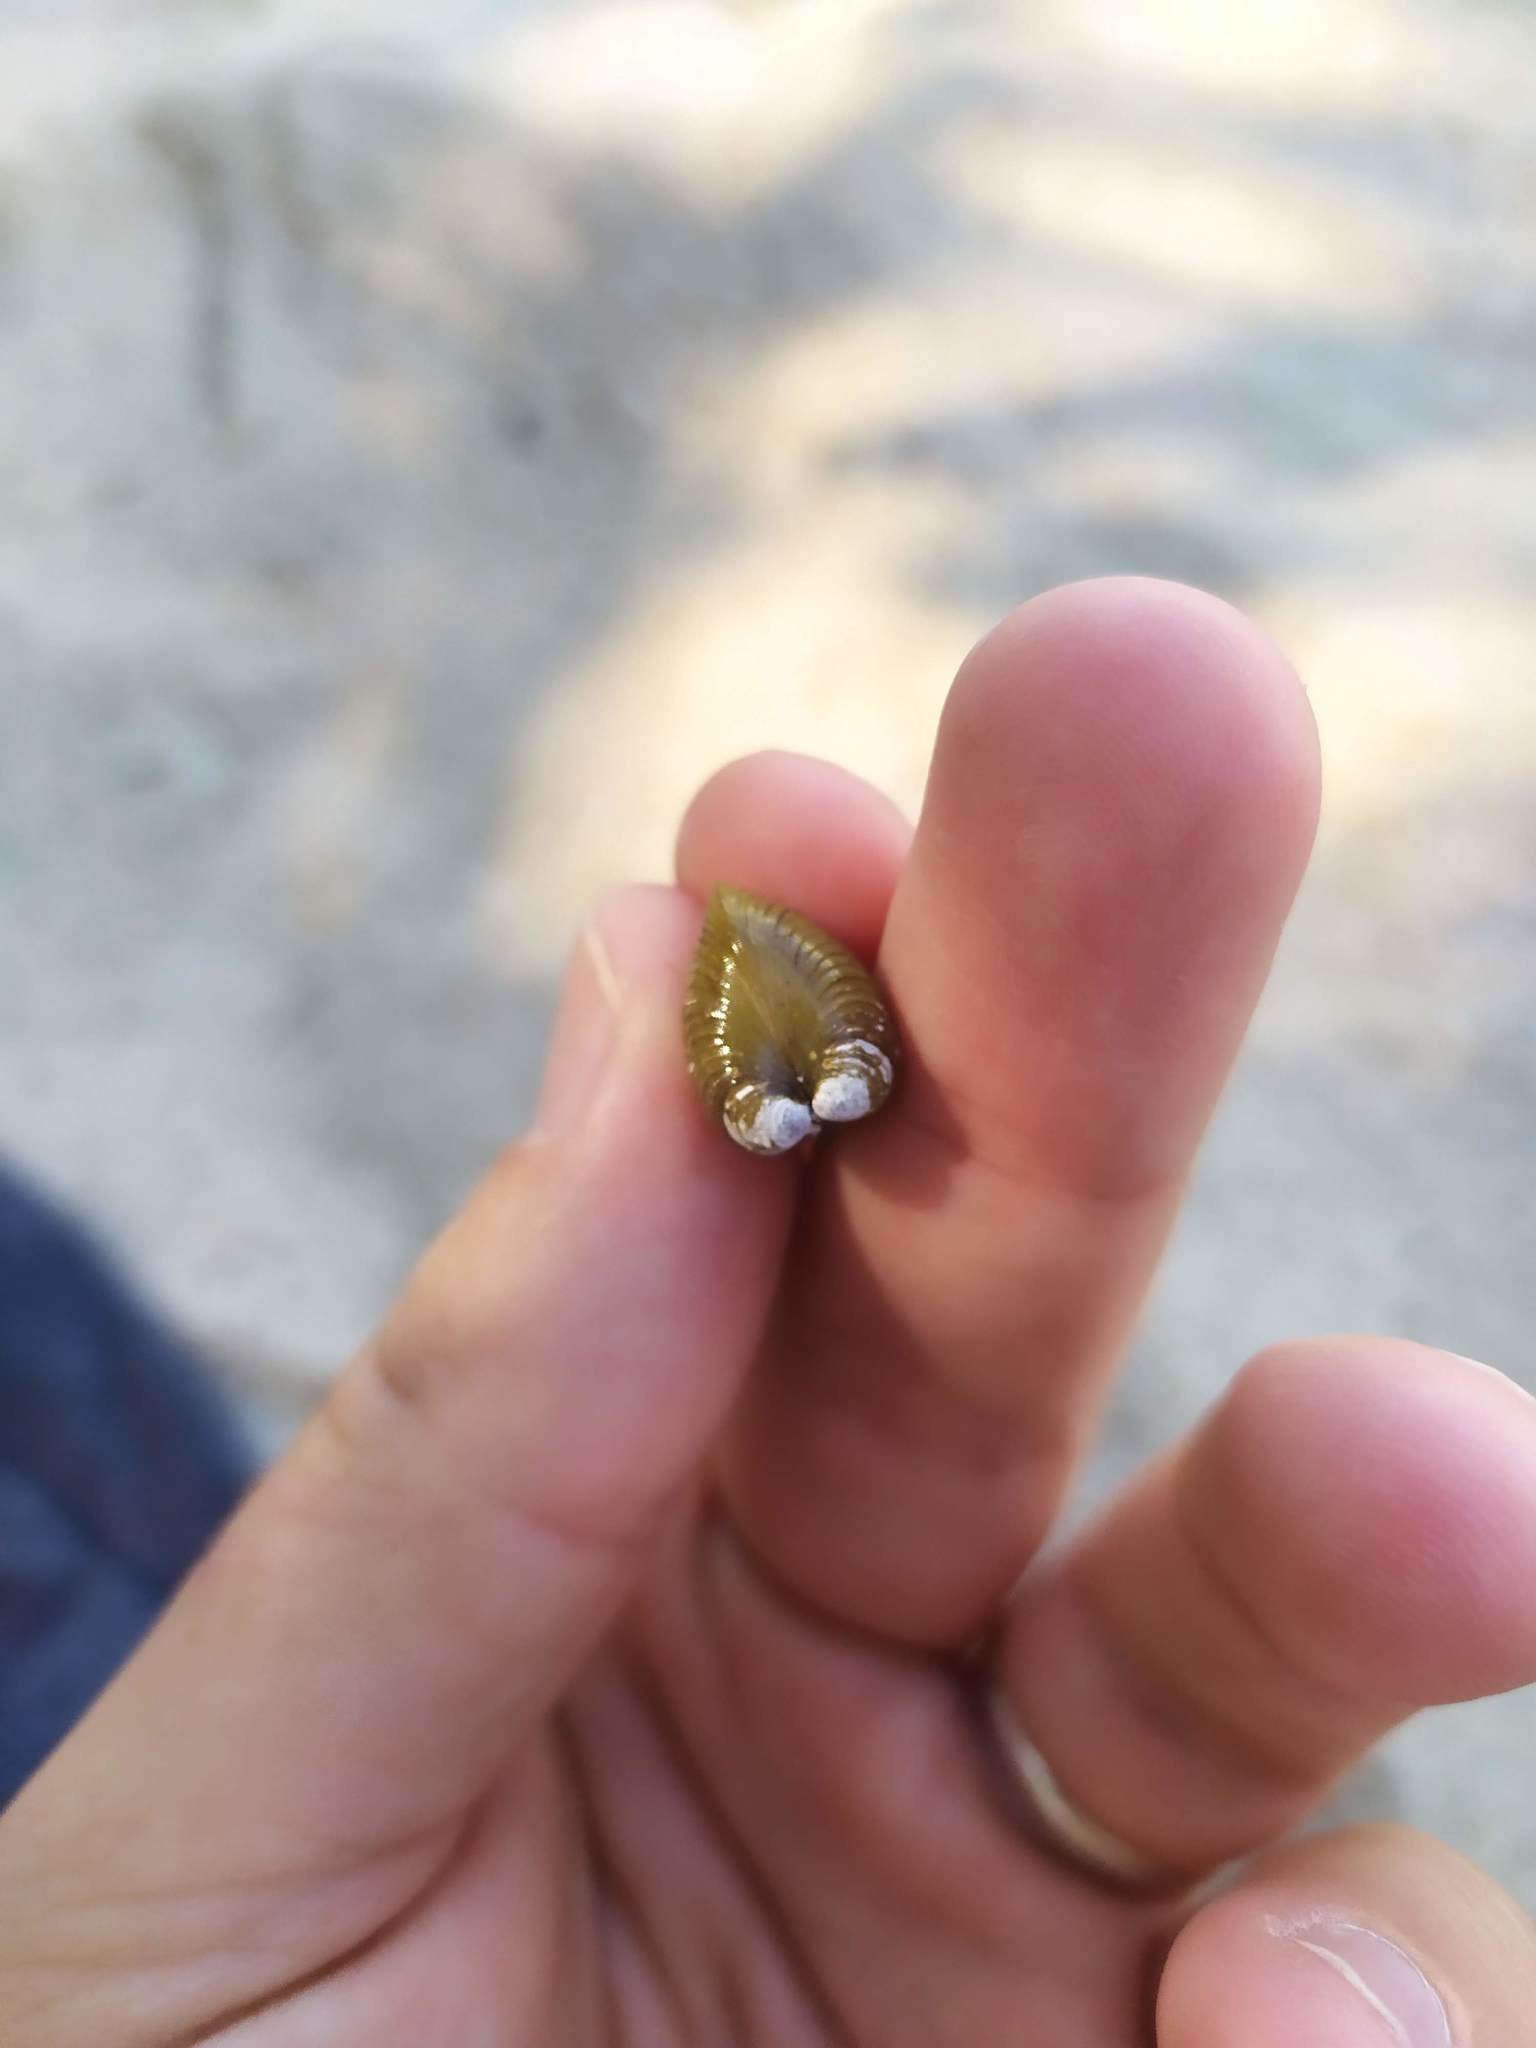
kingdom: Animalia
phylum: Mollusca
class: Bivalvia
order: Venerida
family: Cyrenidae
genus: Corbicula
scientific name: Corbicula fluminea
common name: Asian clam
